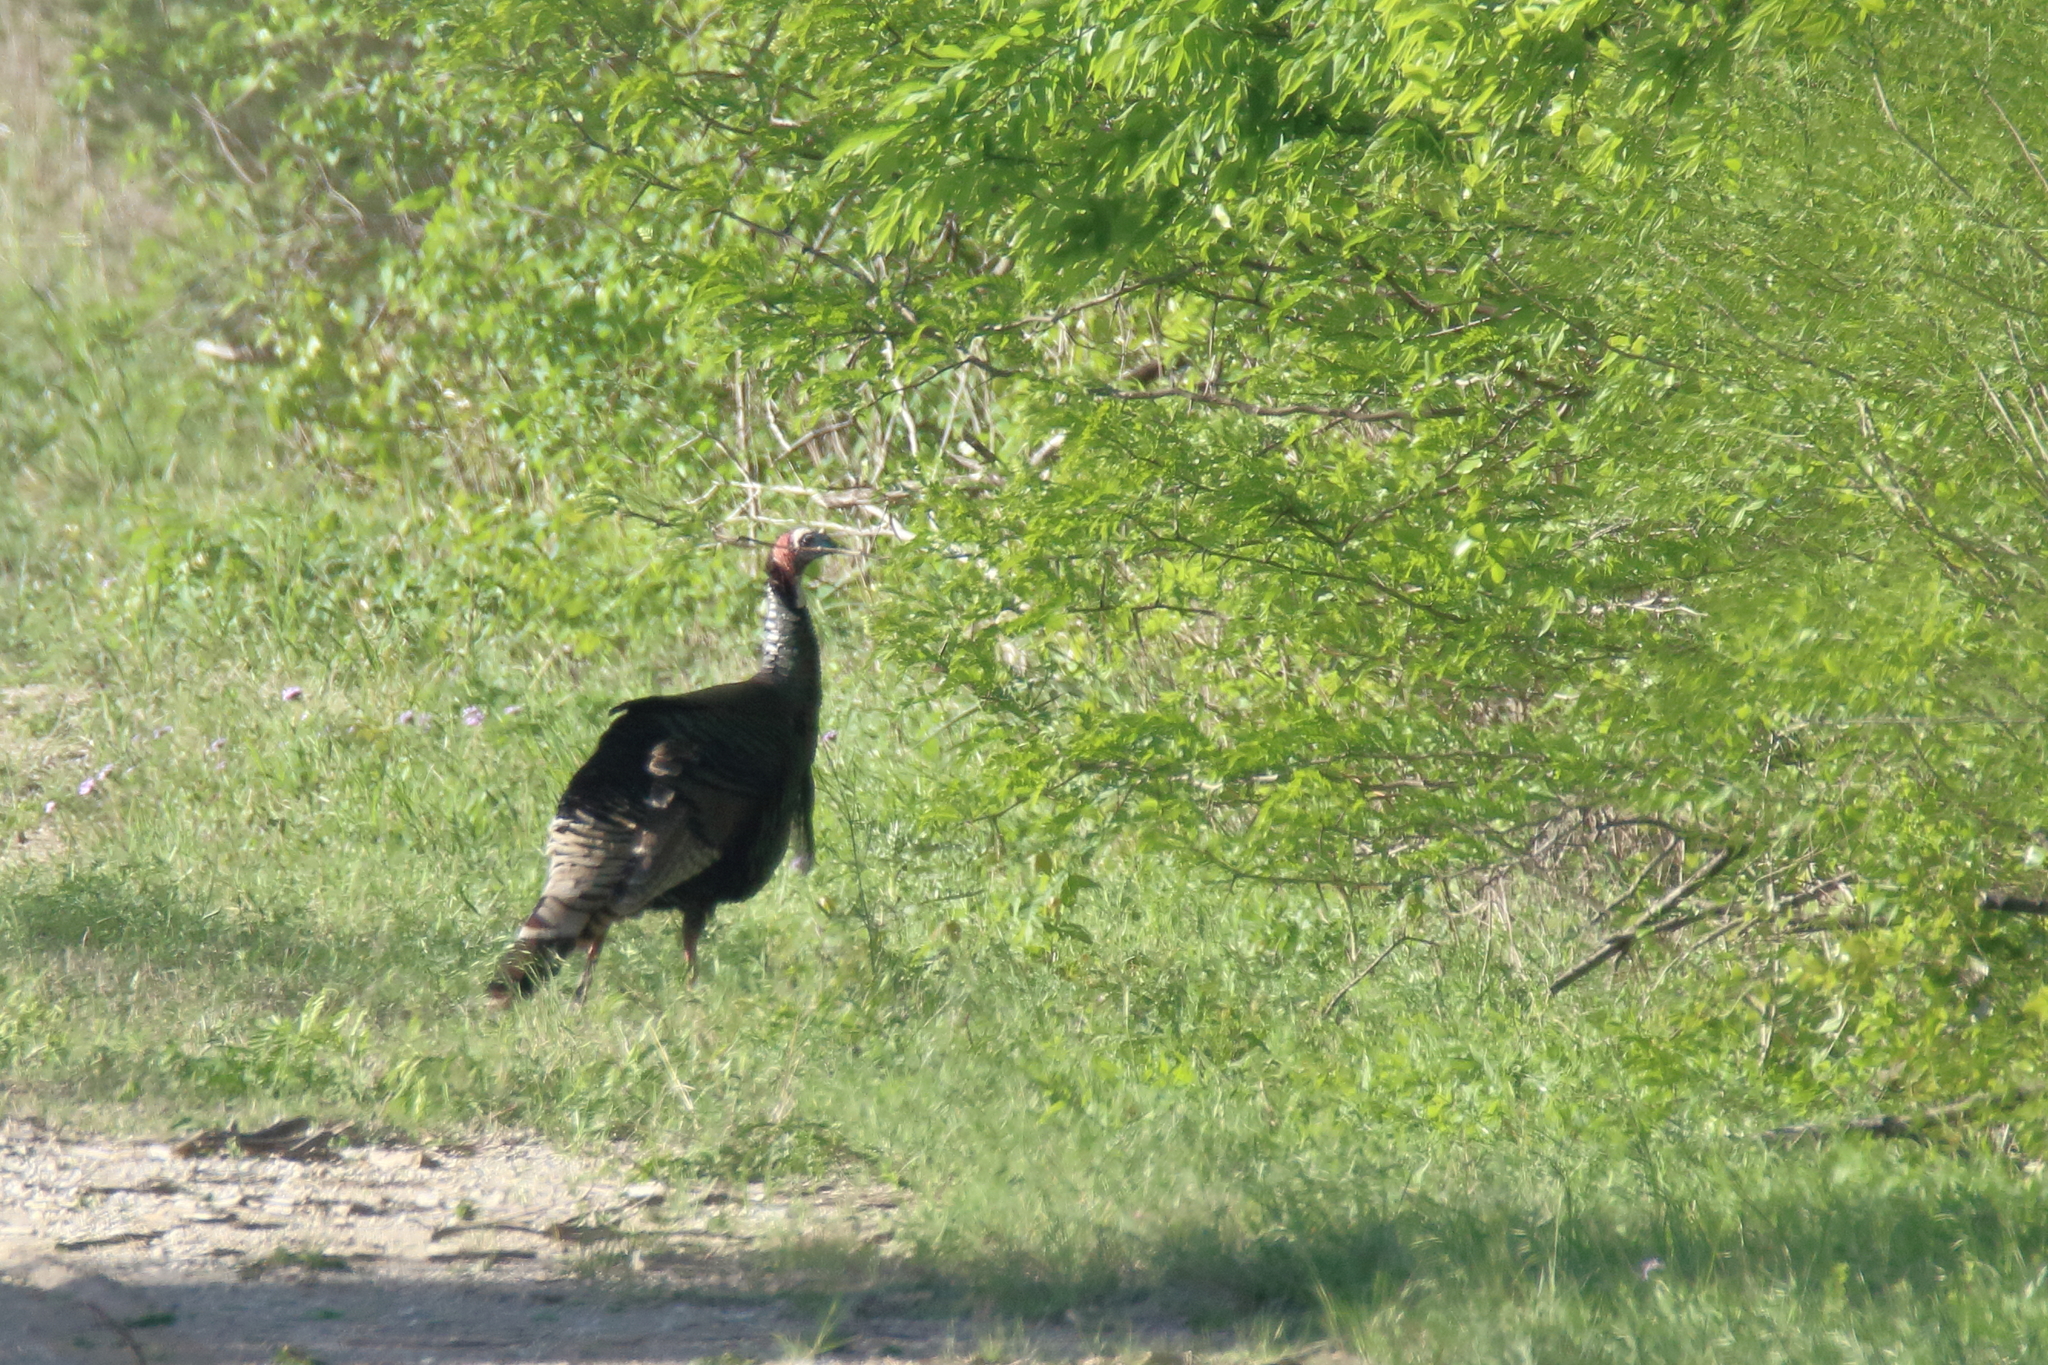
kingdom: Animalia
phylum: Chordata
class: Aves
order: Galliformes
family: Phasianidae
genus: Meleagris
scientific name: Meleagris gallopavo
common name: Wild turkey
